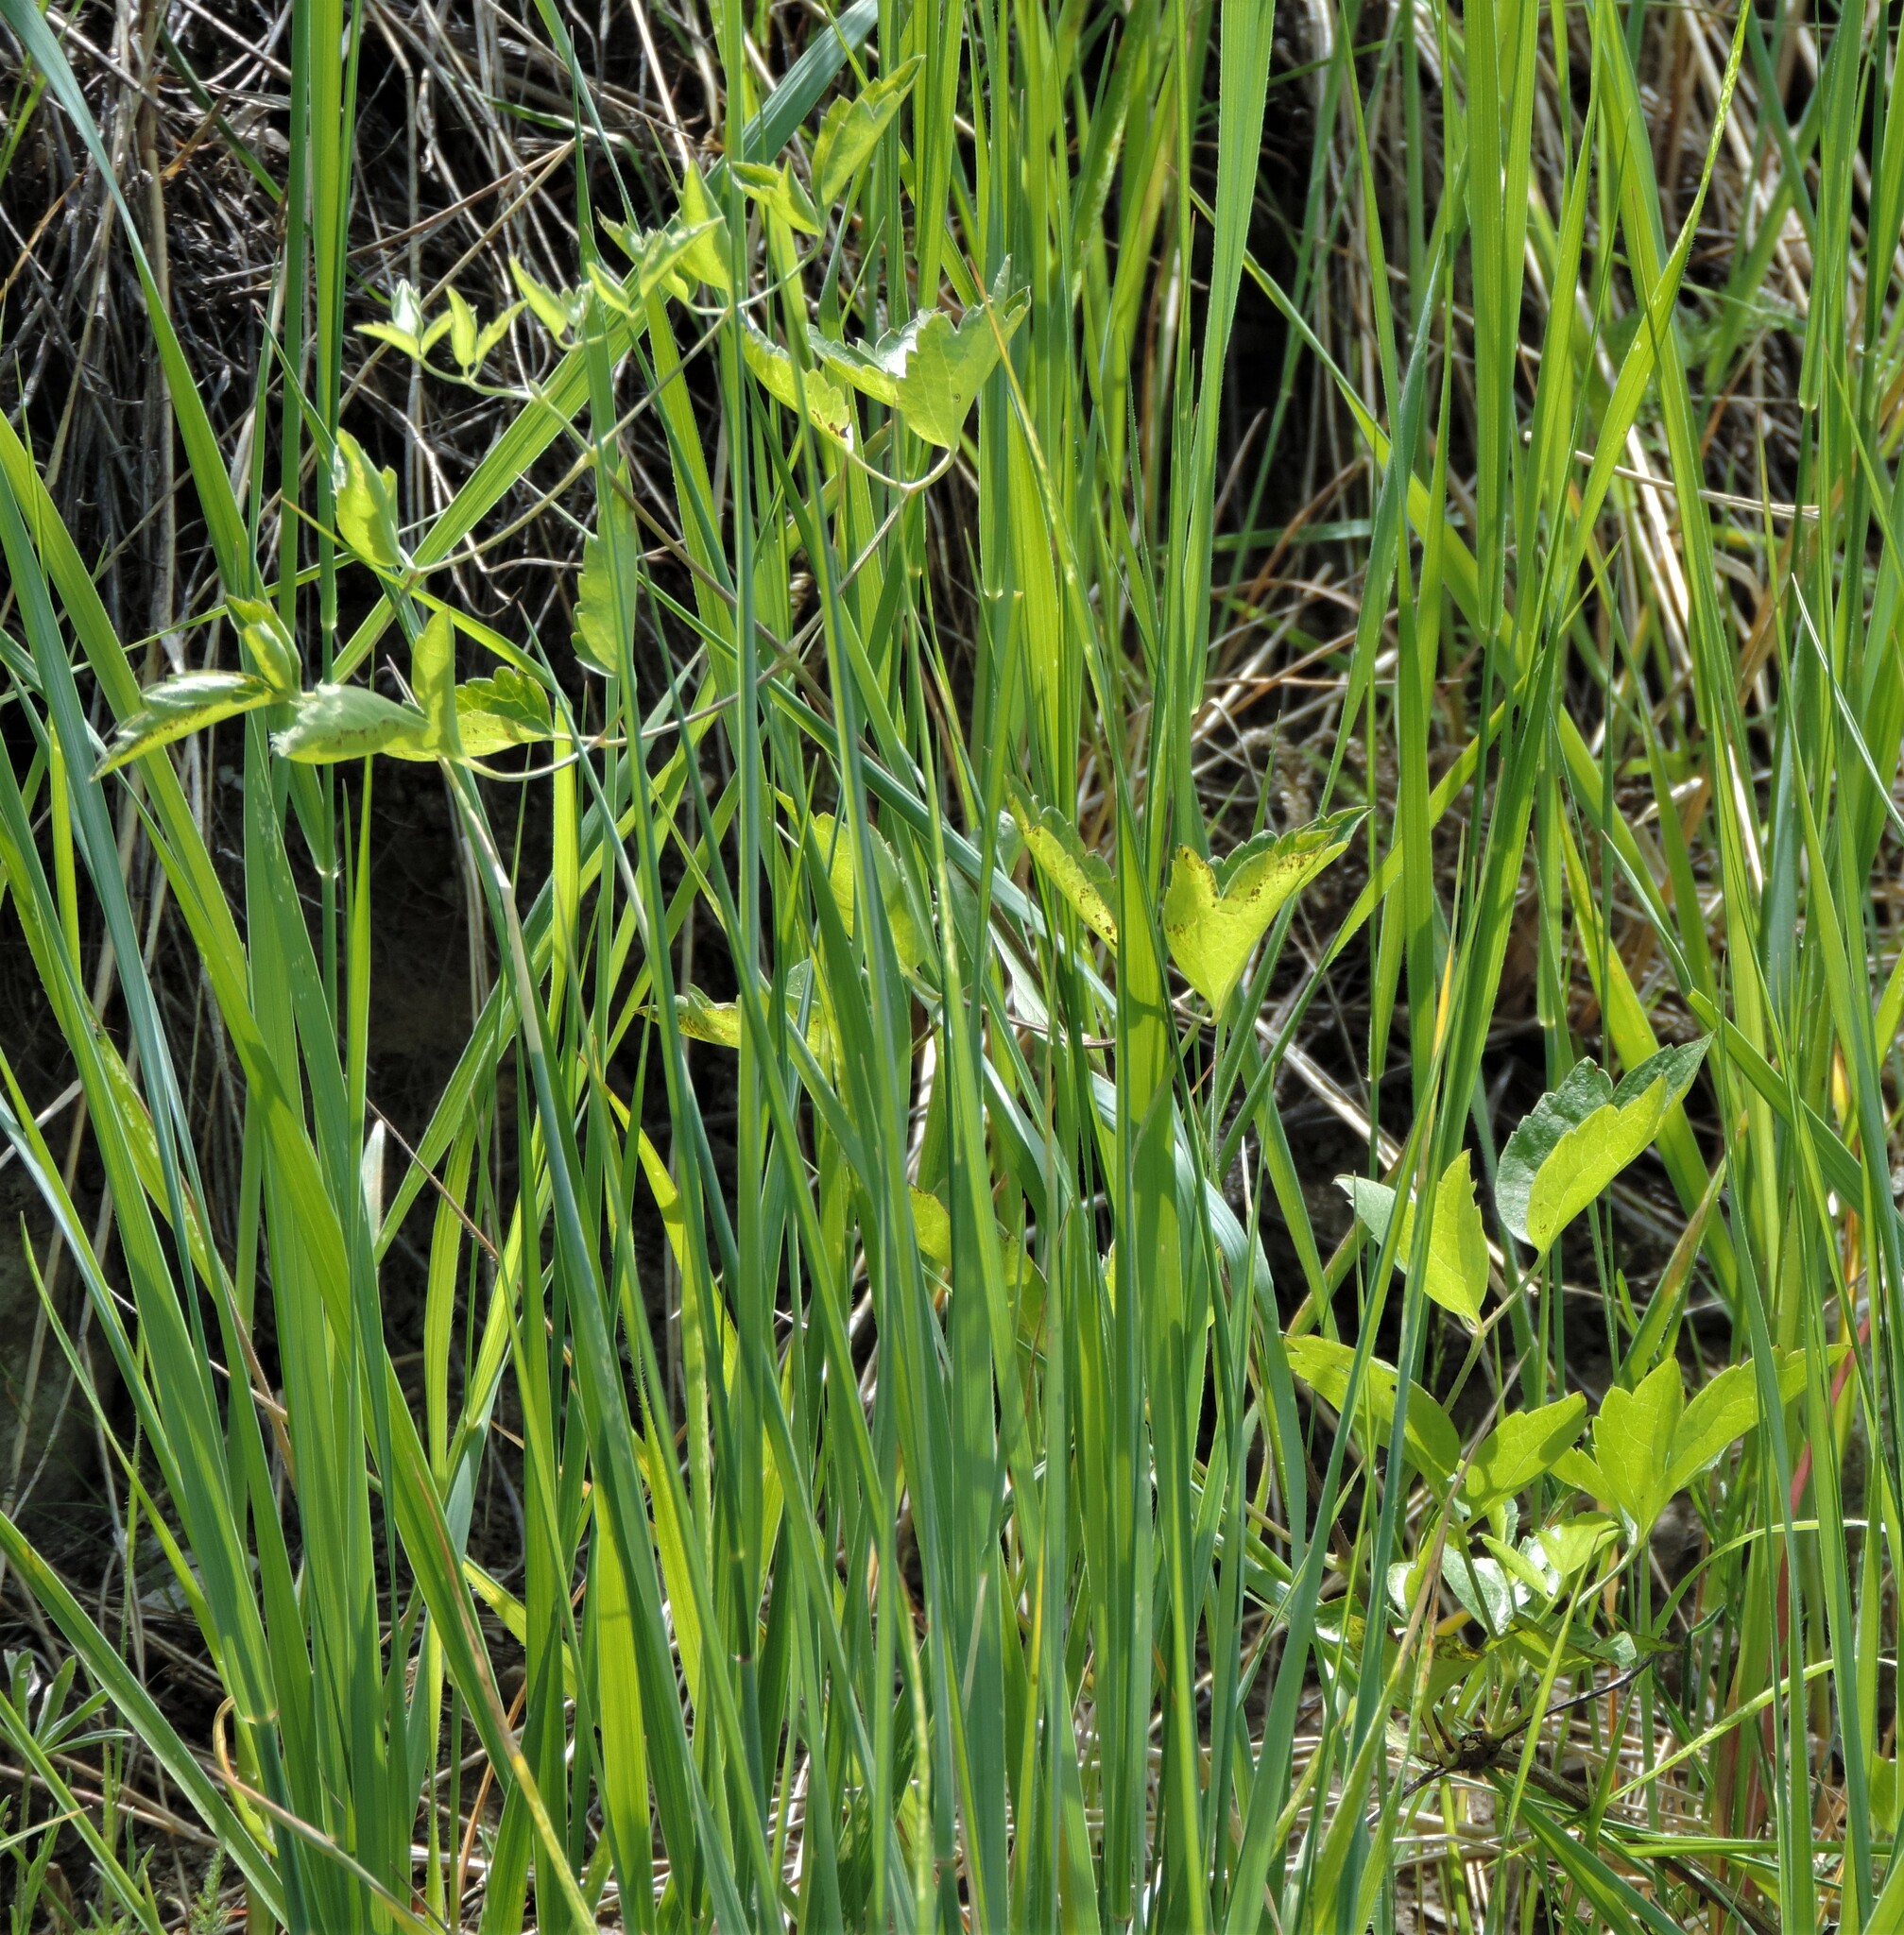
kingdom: Plantae
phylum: Tracheophyta
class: Magnoliopsida
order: Ranunculales
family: Ranunculaceae
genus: Clematis
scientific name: Clematis ligusticifolia
